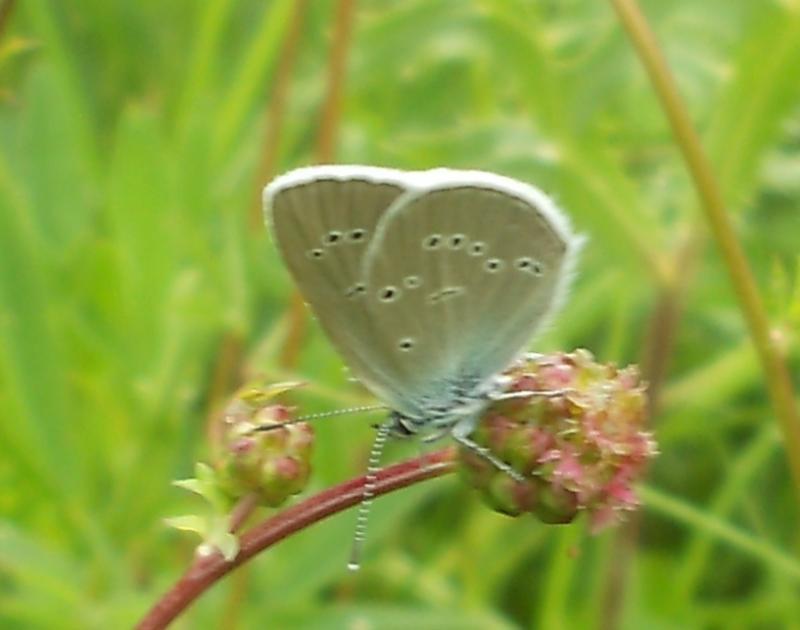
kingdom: Animalia
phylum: Arthropoda
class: Insecta
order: Lepidoptera
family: Lycaenidae
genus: Cyaniris
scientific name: Cyaniris semiargus
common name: Mazarine blue
